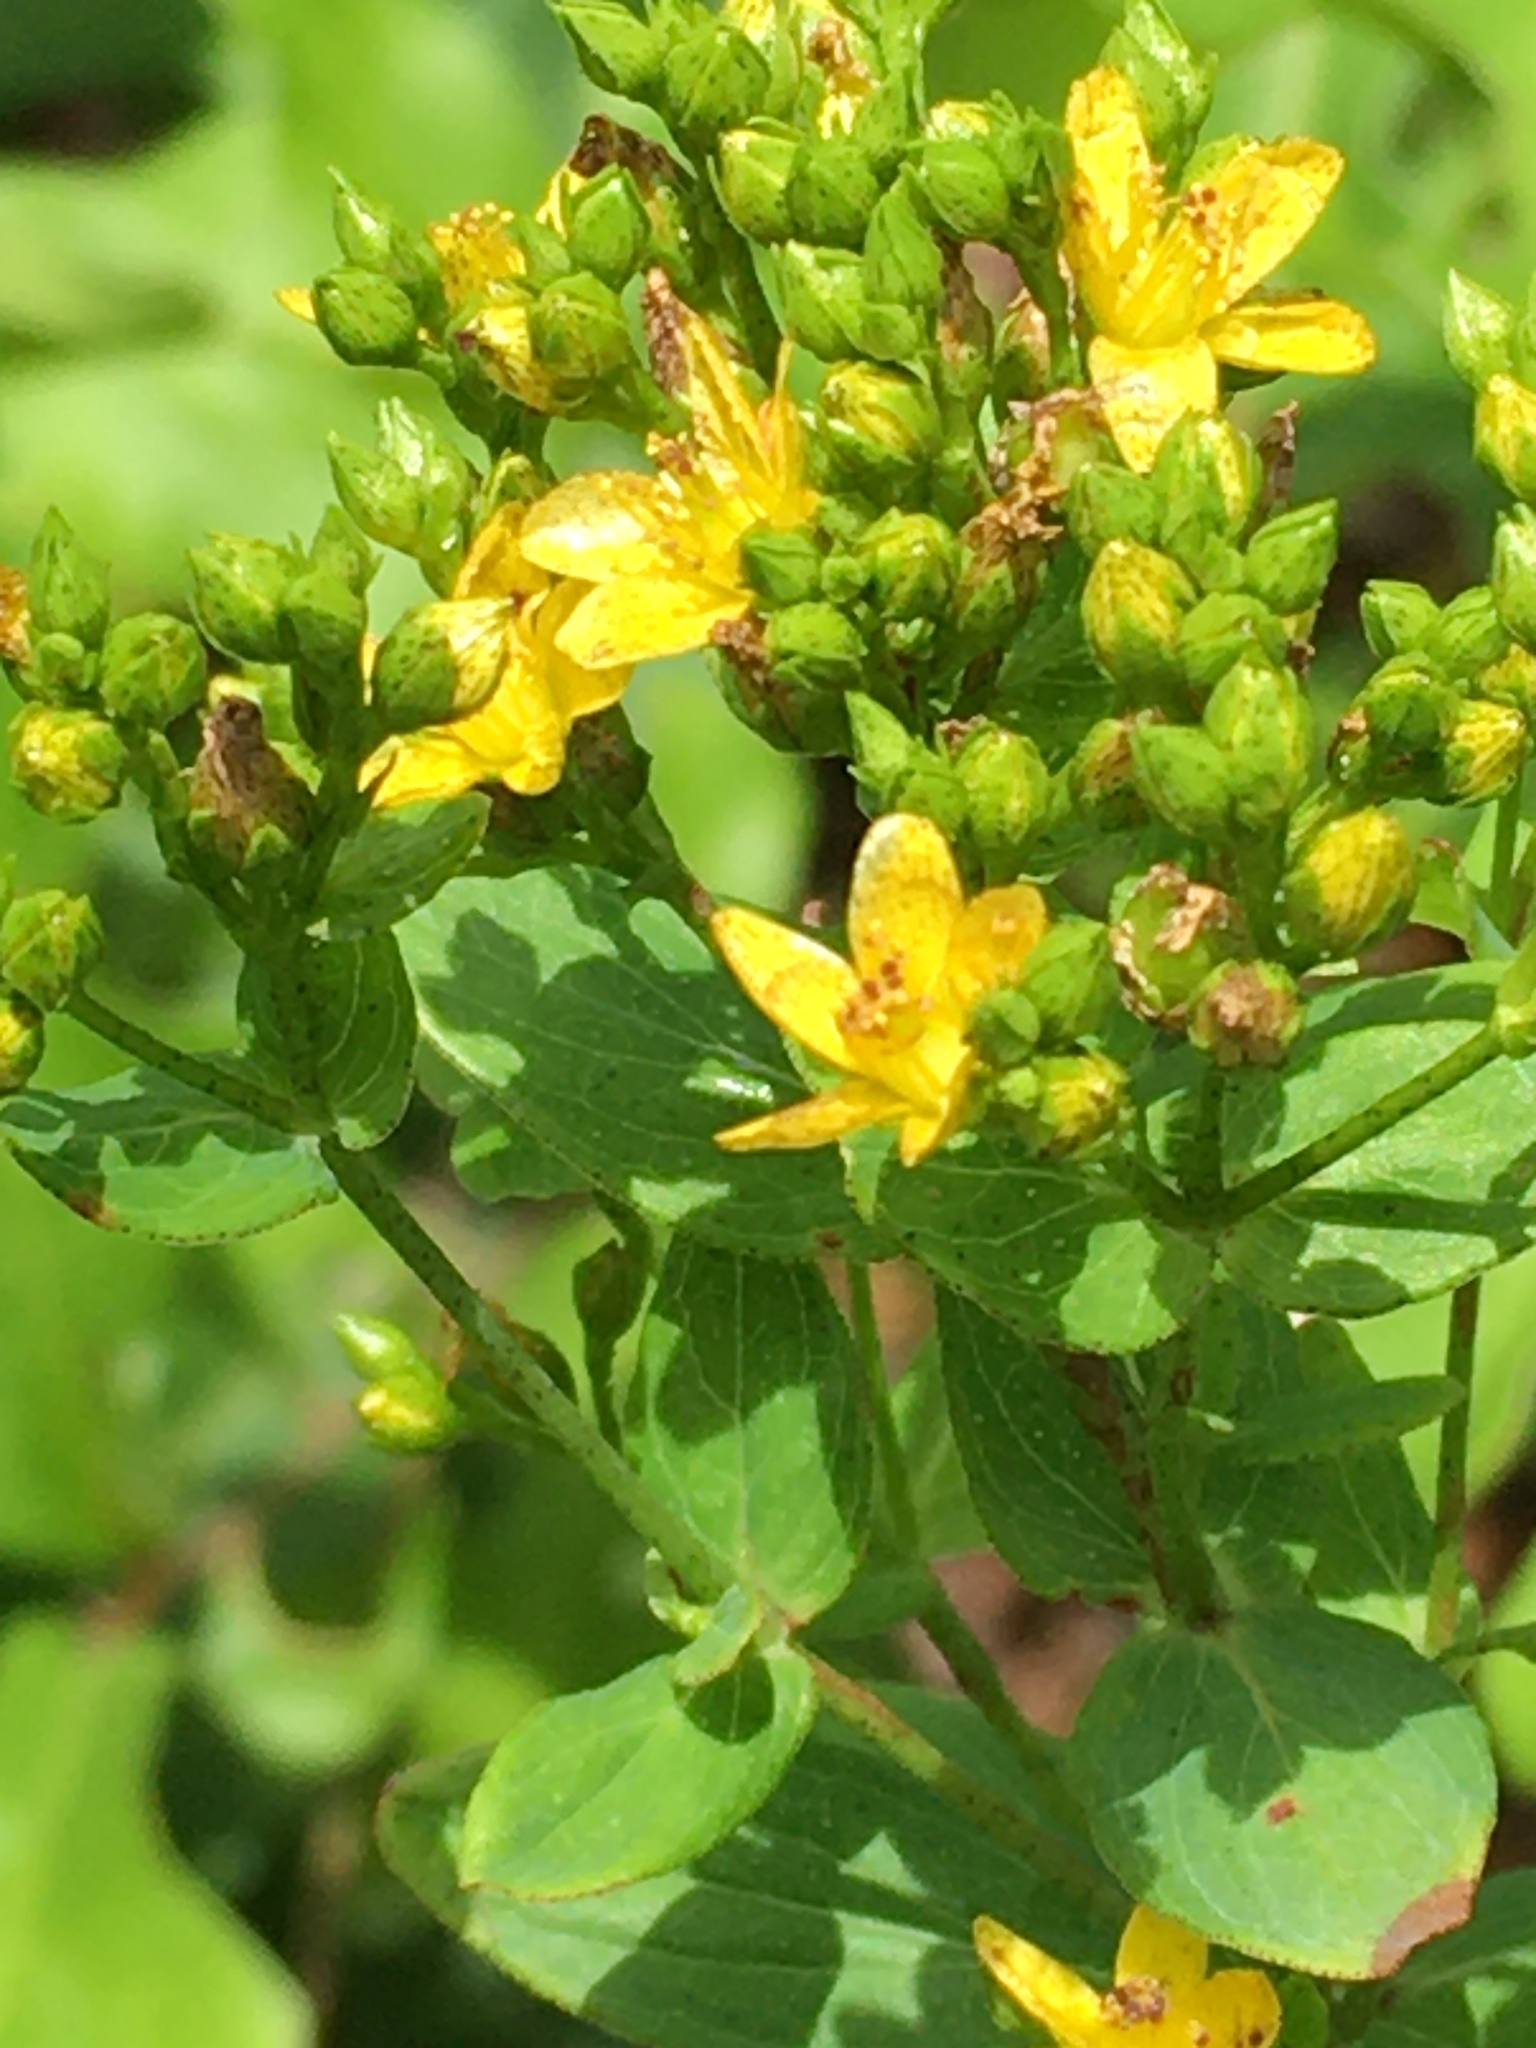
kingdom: Plantae
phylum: Tracheophyta
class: Magnoliopsida
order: Malpighiales
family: Hypericaceae
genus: Hypericum
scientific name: Hypericum punctatum
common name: Spotted st. john's-wort
